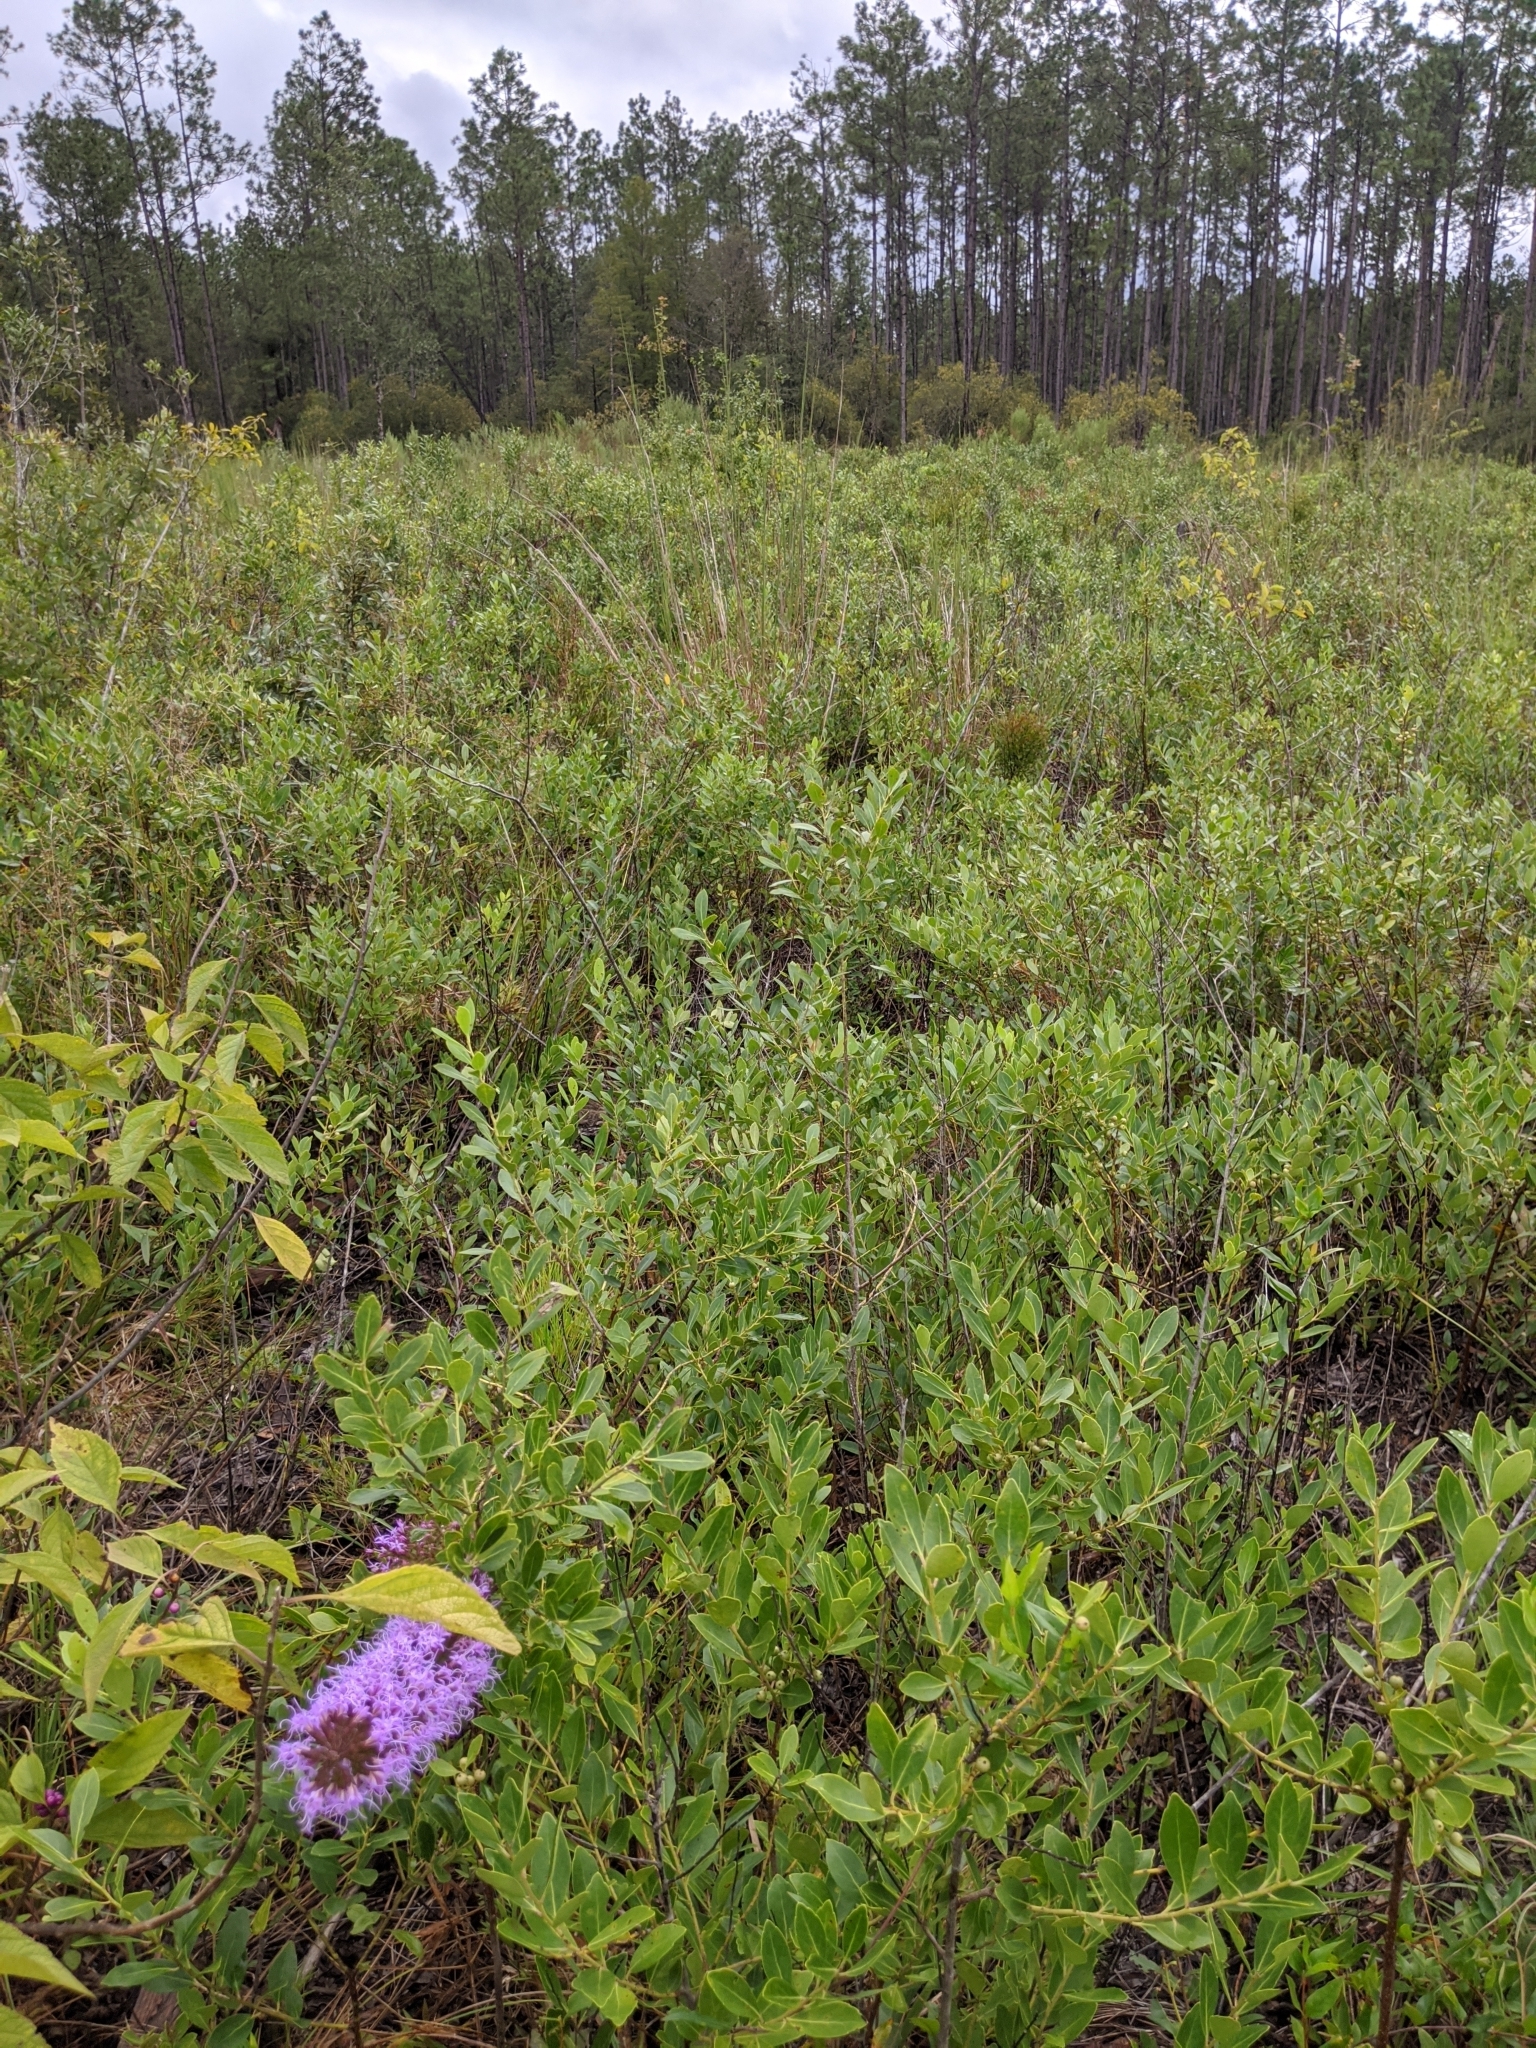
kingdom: Plantae
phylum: Tracheophyta
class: Magnoliopsida
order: Asterales
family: Asteraceae
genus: Liatris
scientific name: Liatris gracilis
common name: Slender gayfeather
